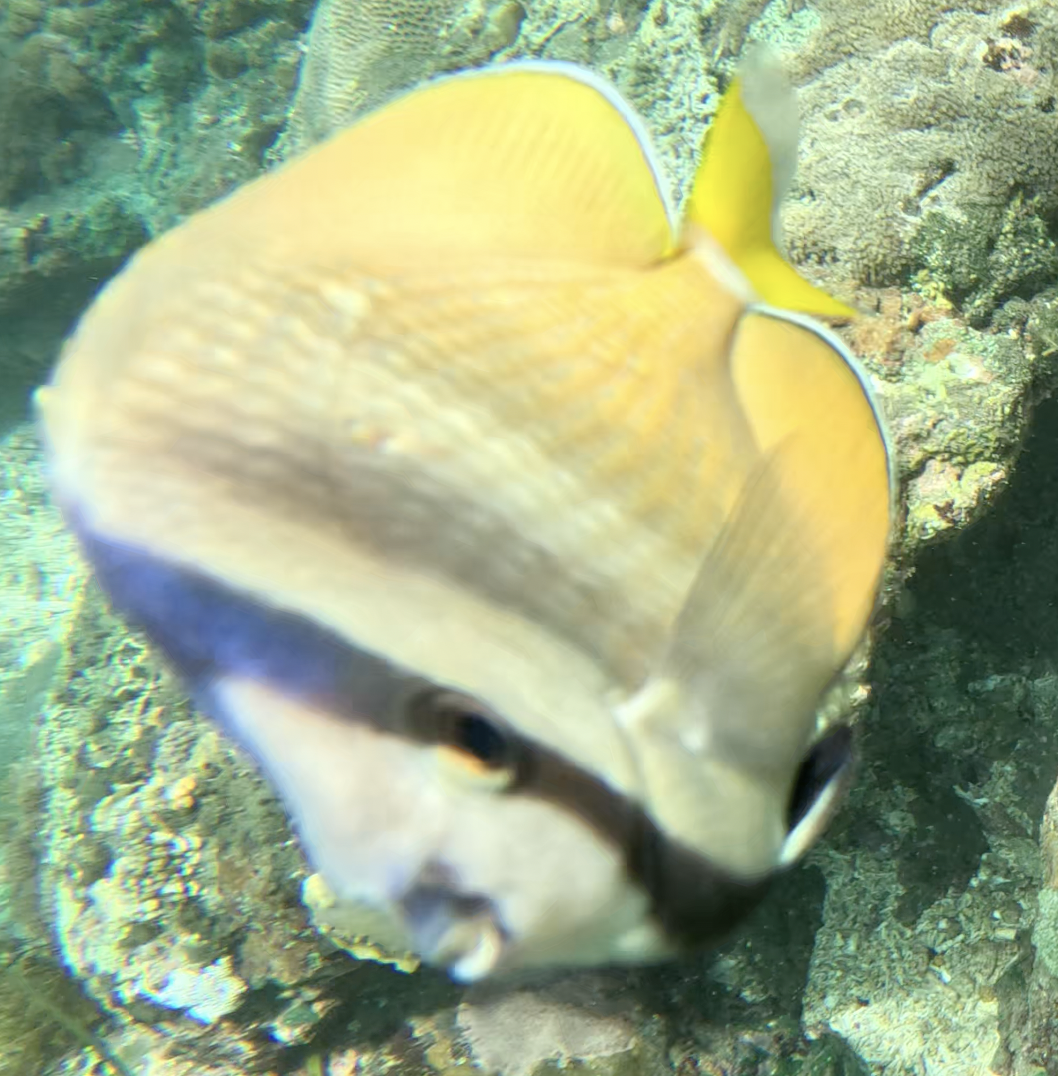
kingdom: Animalia
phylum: Chordata
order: Perciformes
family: Chaetodontidae
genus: Chaetodon
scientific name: Chaetodon kleinii
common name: Klein's butterflyfish
